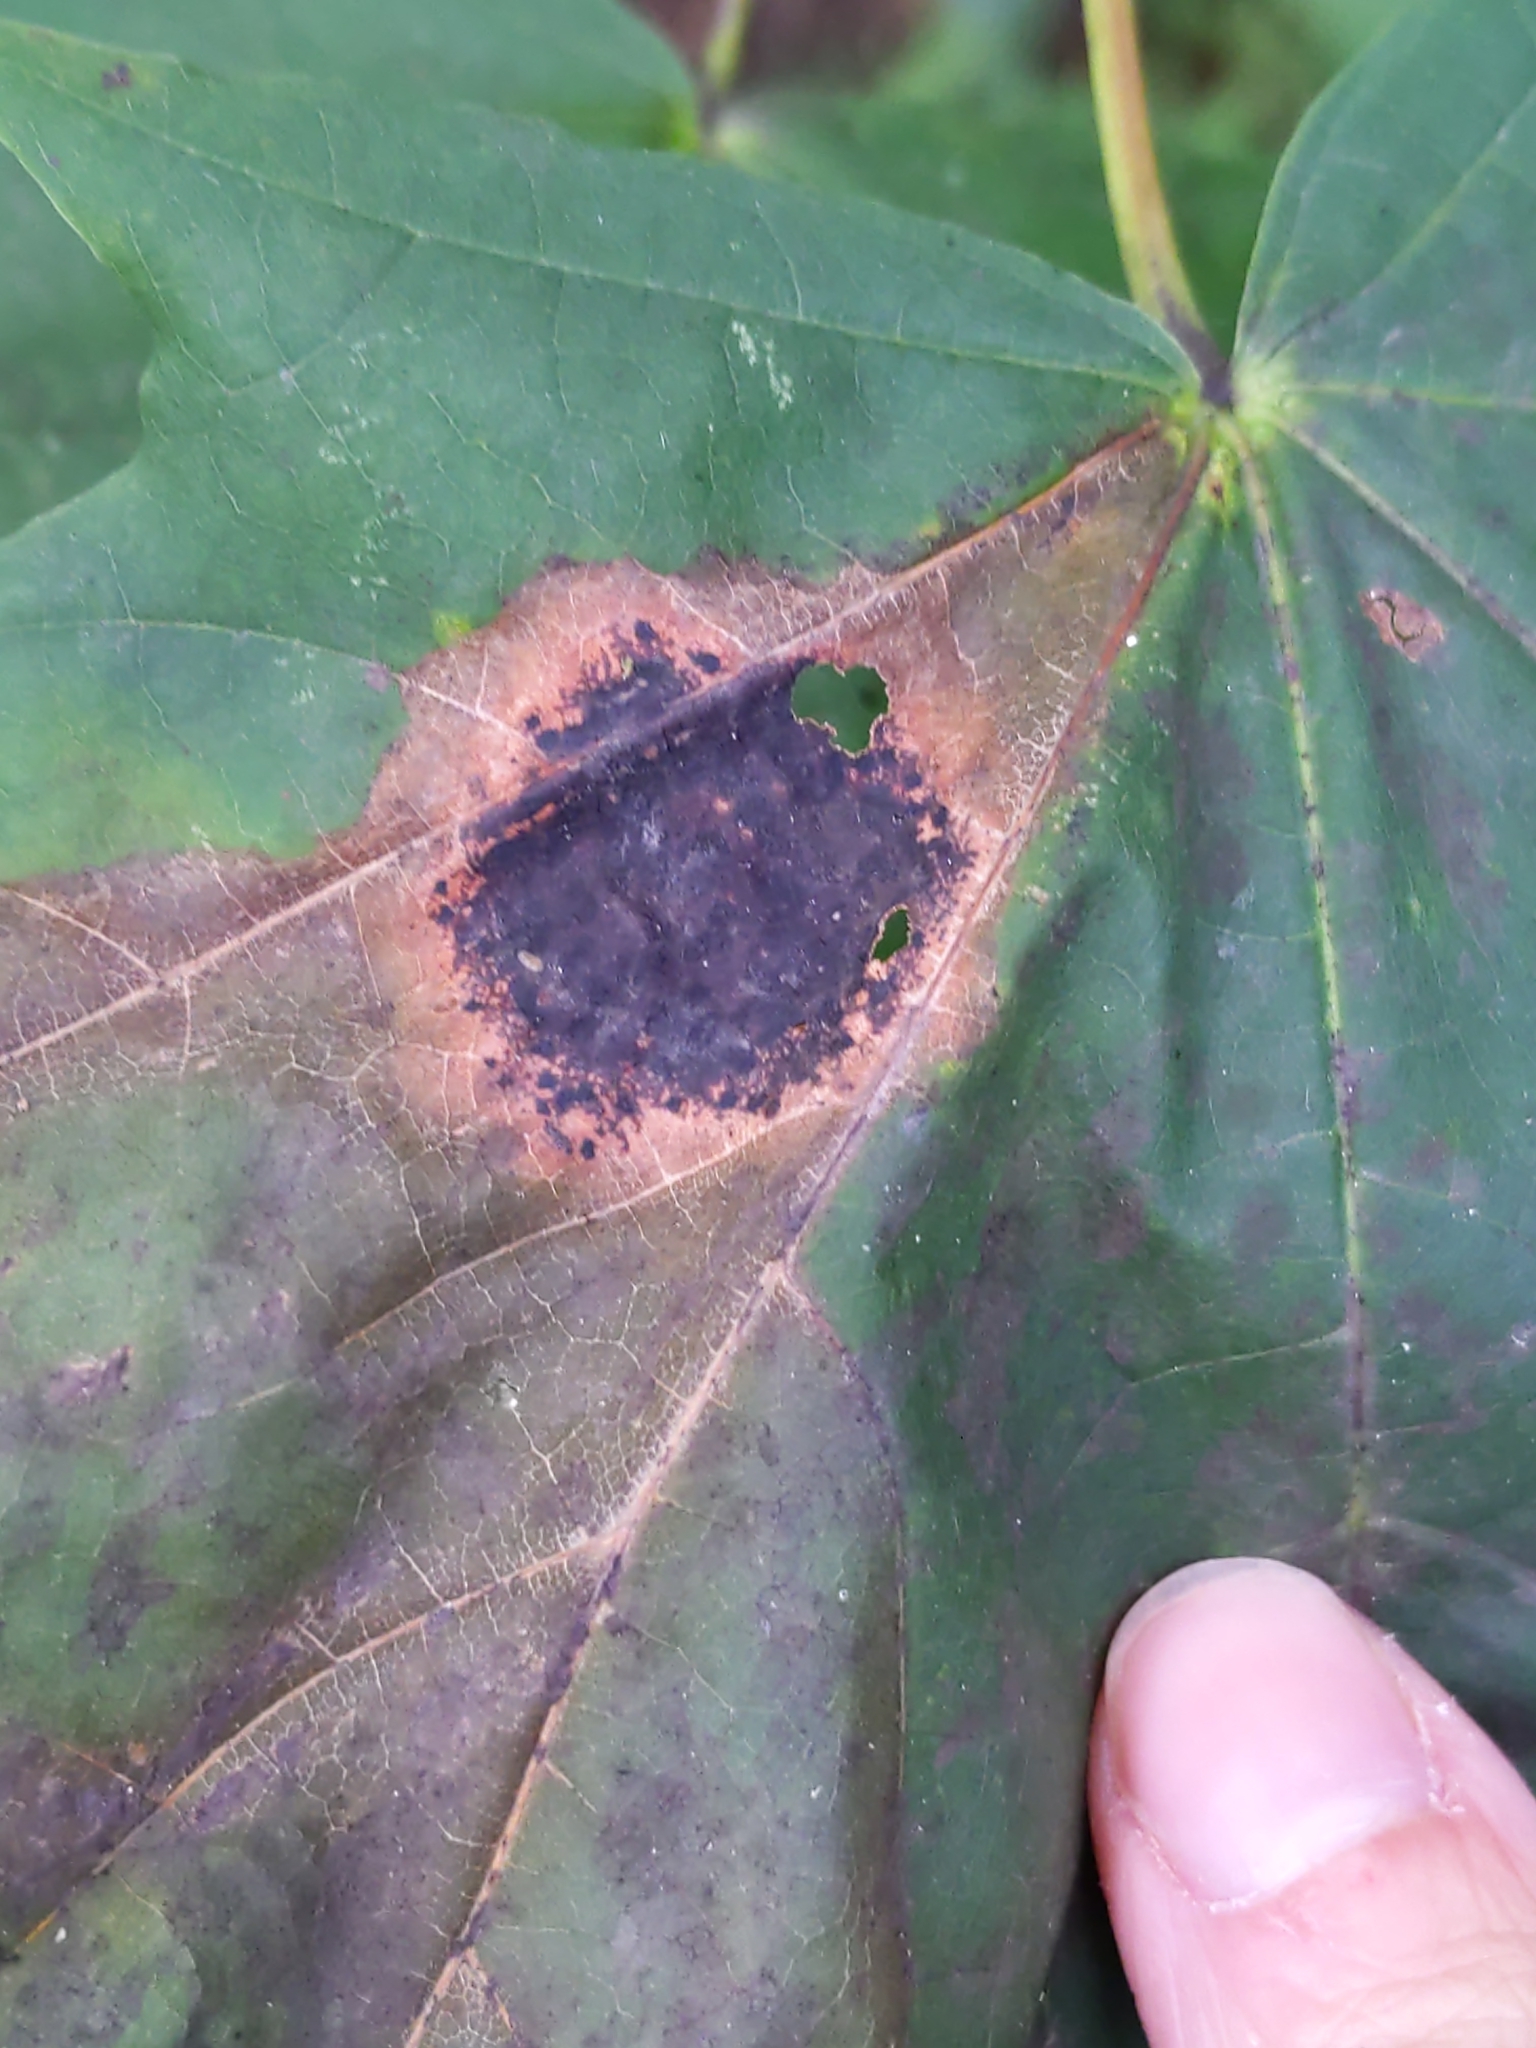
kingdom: Fungi
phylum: Ascomycota
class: Leotiomycetes
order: Rhytismatales
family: Rhytismataceae
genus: Rhytisma
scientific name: Rhytisma acerinum
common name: European tar spot
